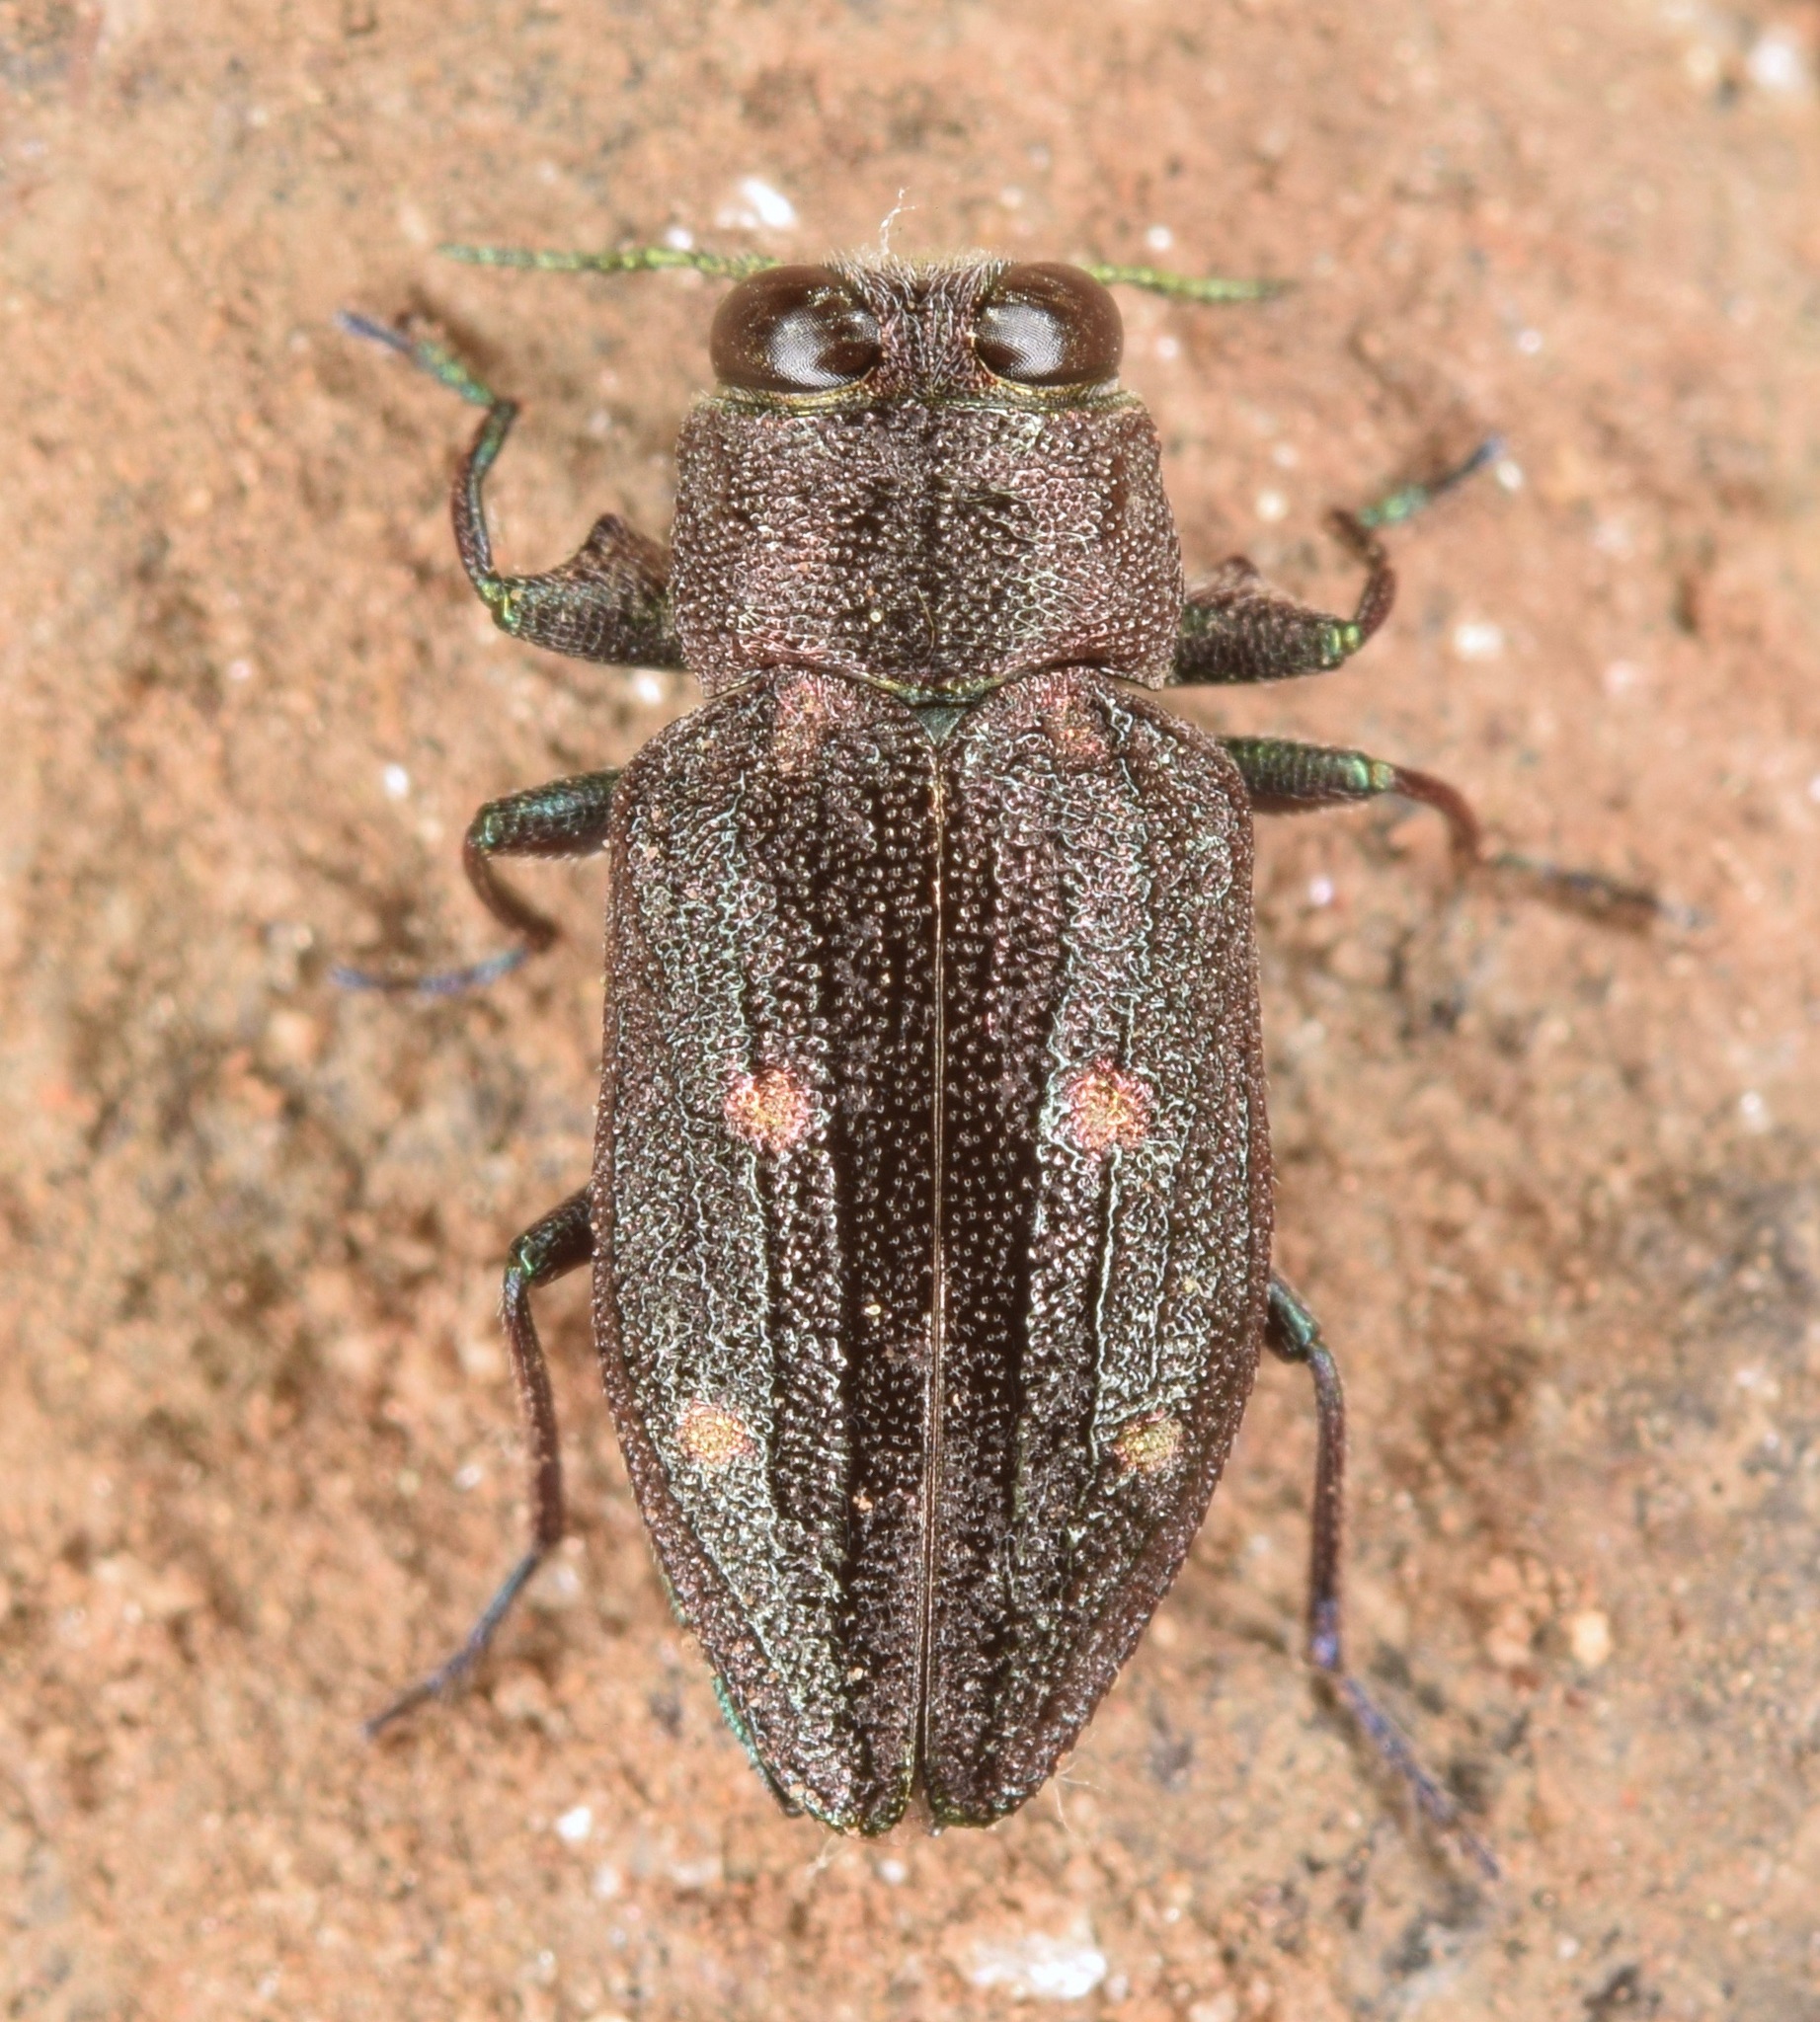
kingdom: Animalia
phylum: Arthropoda
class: Insecta
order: Coleoptera
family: Buprestidae
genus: Chrysobothris
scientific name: Chrysobothris sexsignata
